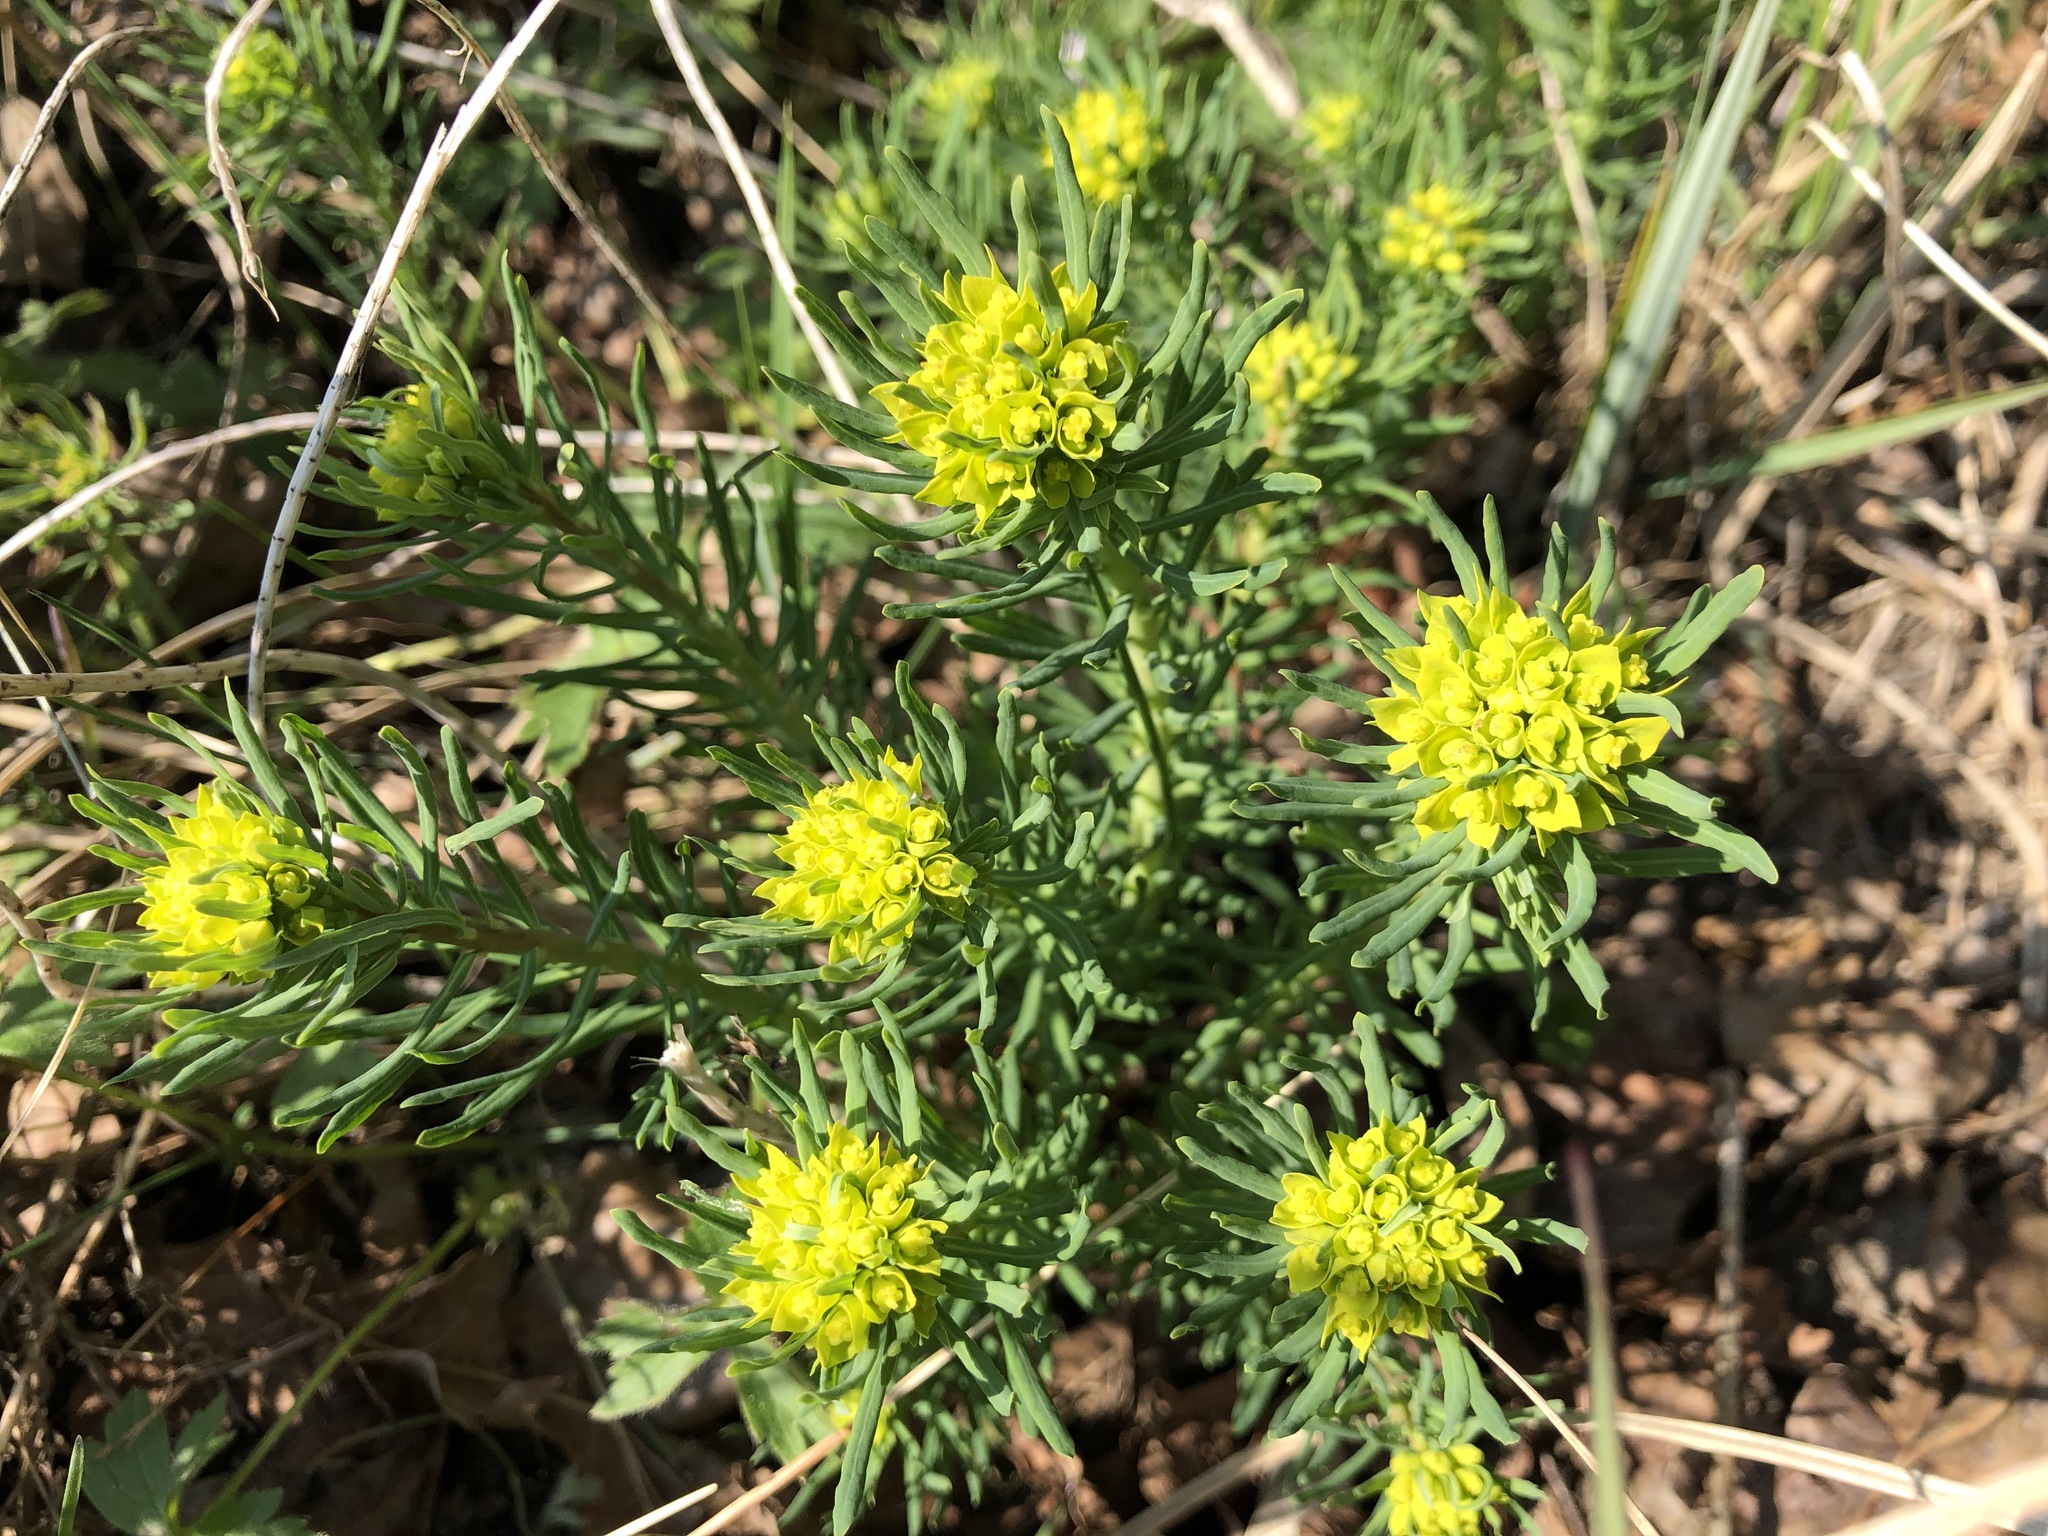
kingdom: Plantae
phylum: Tracheophyta
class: Magnoliopsida
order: Malpighiales
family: Euphorbiaceae
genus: Euphorbia
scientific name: Euphorbia cyparissias
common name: Cypress spurge
